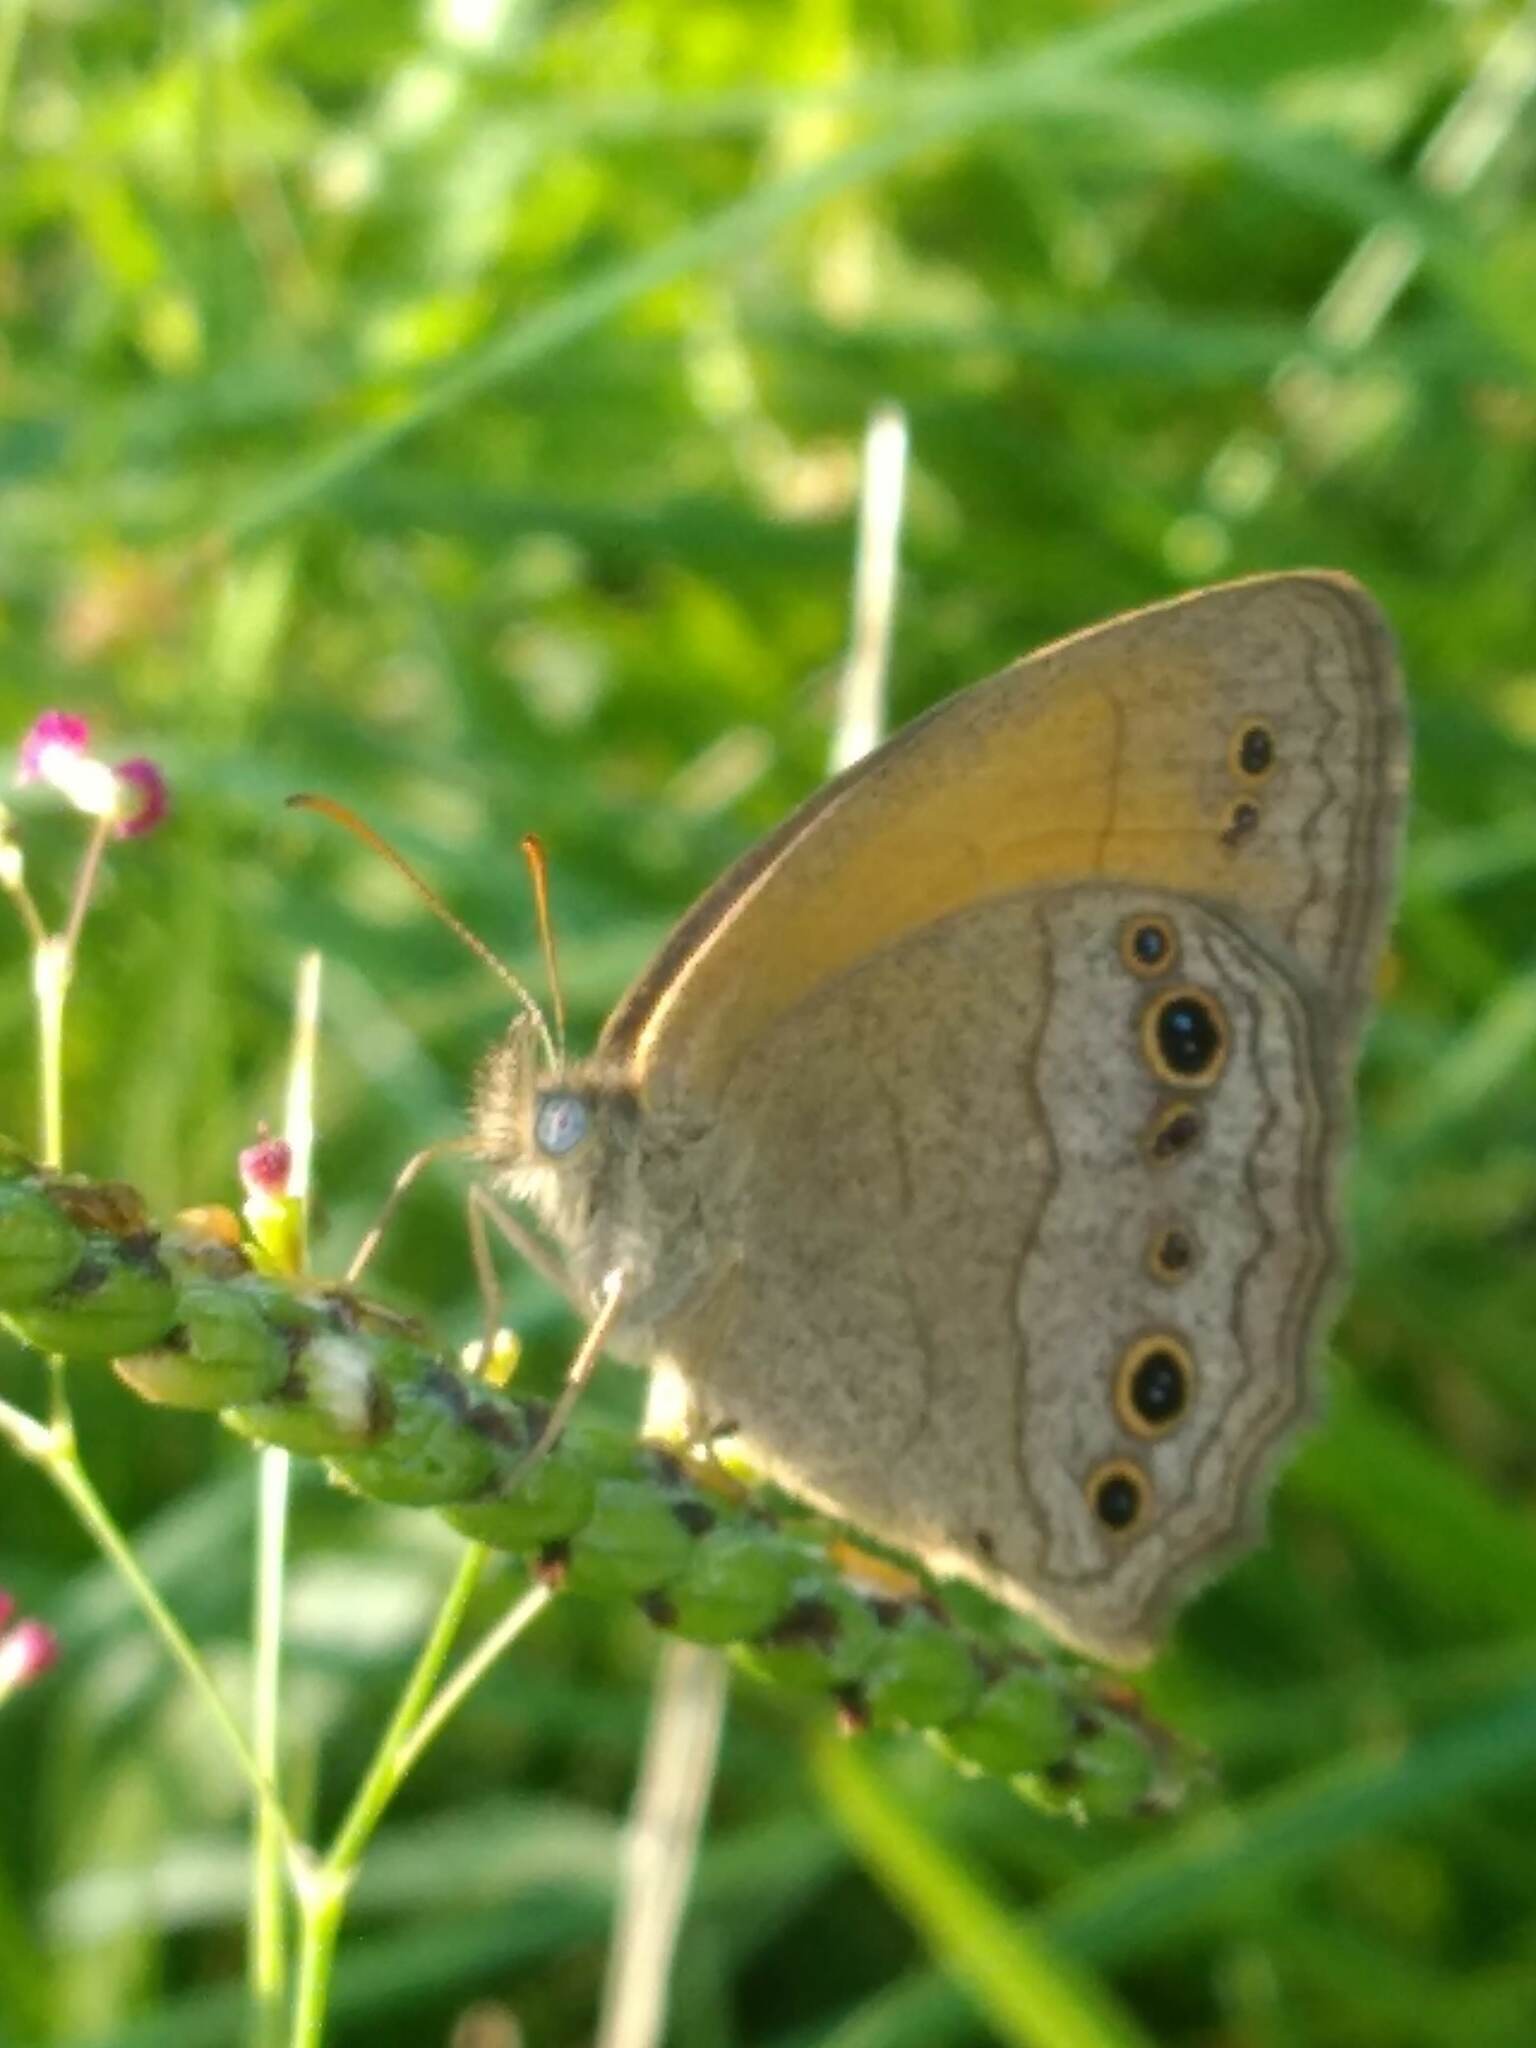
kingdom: Animalia
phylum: Arthropoda
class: Insecta
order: Lepidoptera
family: Nymphalidae
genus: Yphthimoides
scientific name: Yphthimoides celmis
